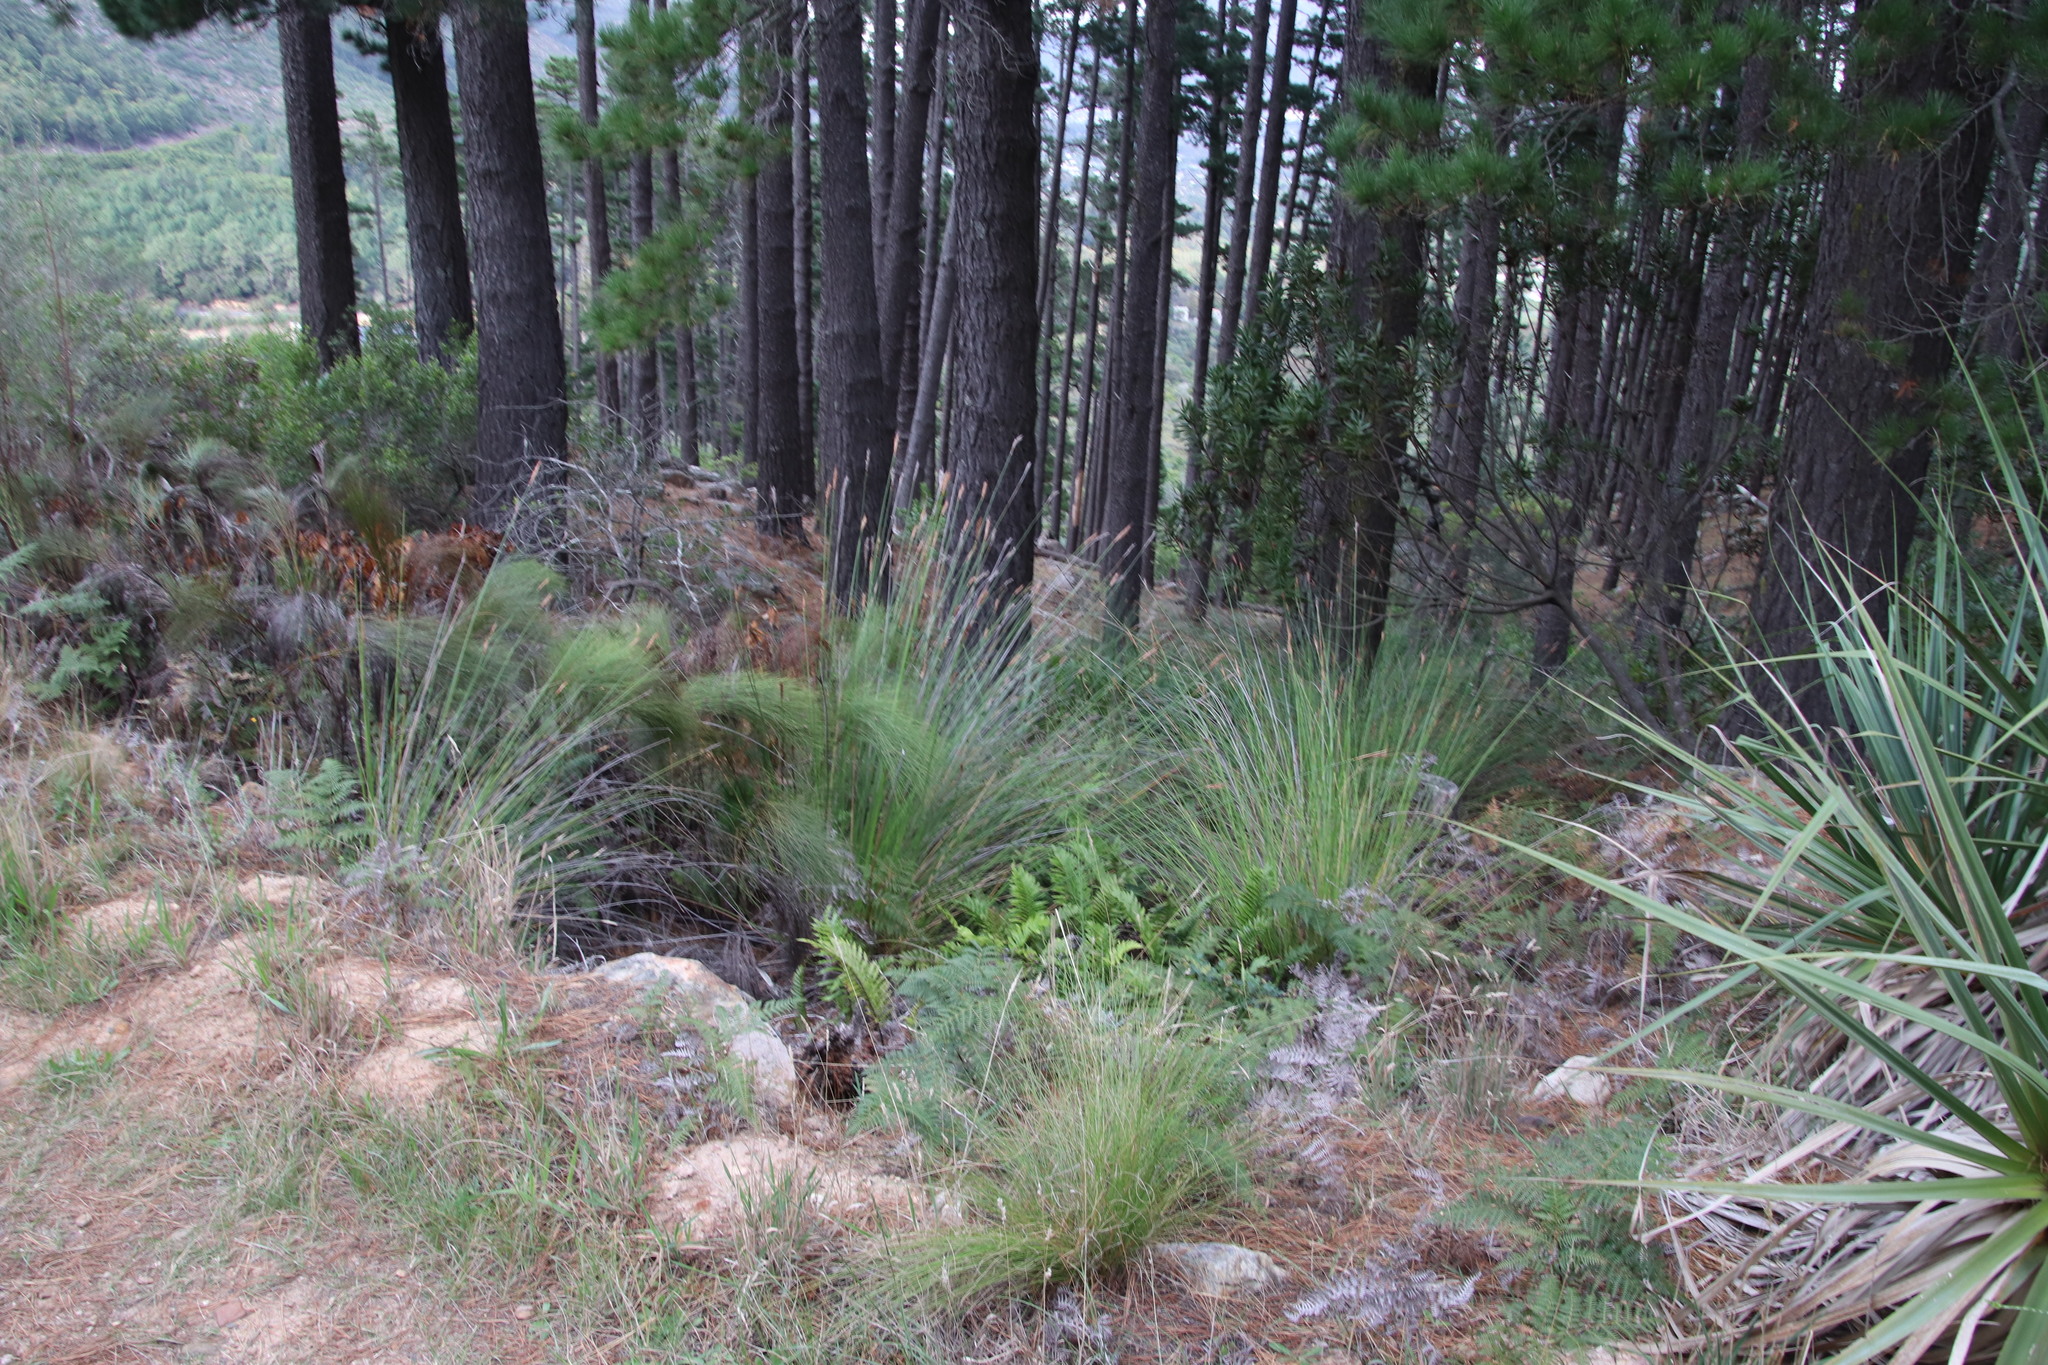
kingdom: Plantae
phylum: Tracheophyta
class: Liliopsida
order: Poales
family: Cyperaceae
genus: Neesenbeckia
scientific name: Neesenbeckia punctoria
